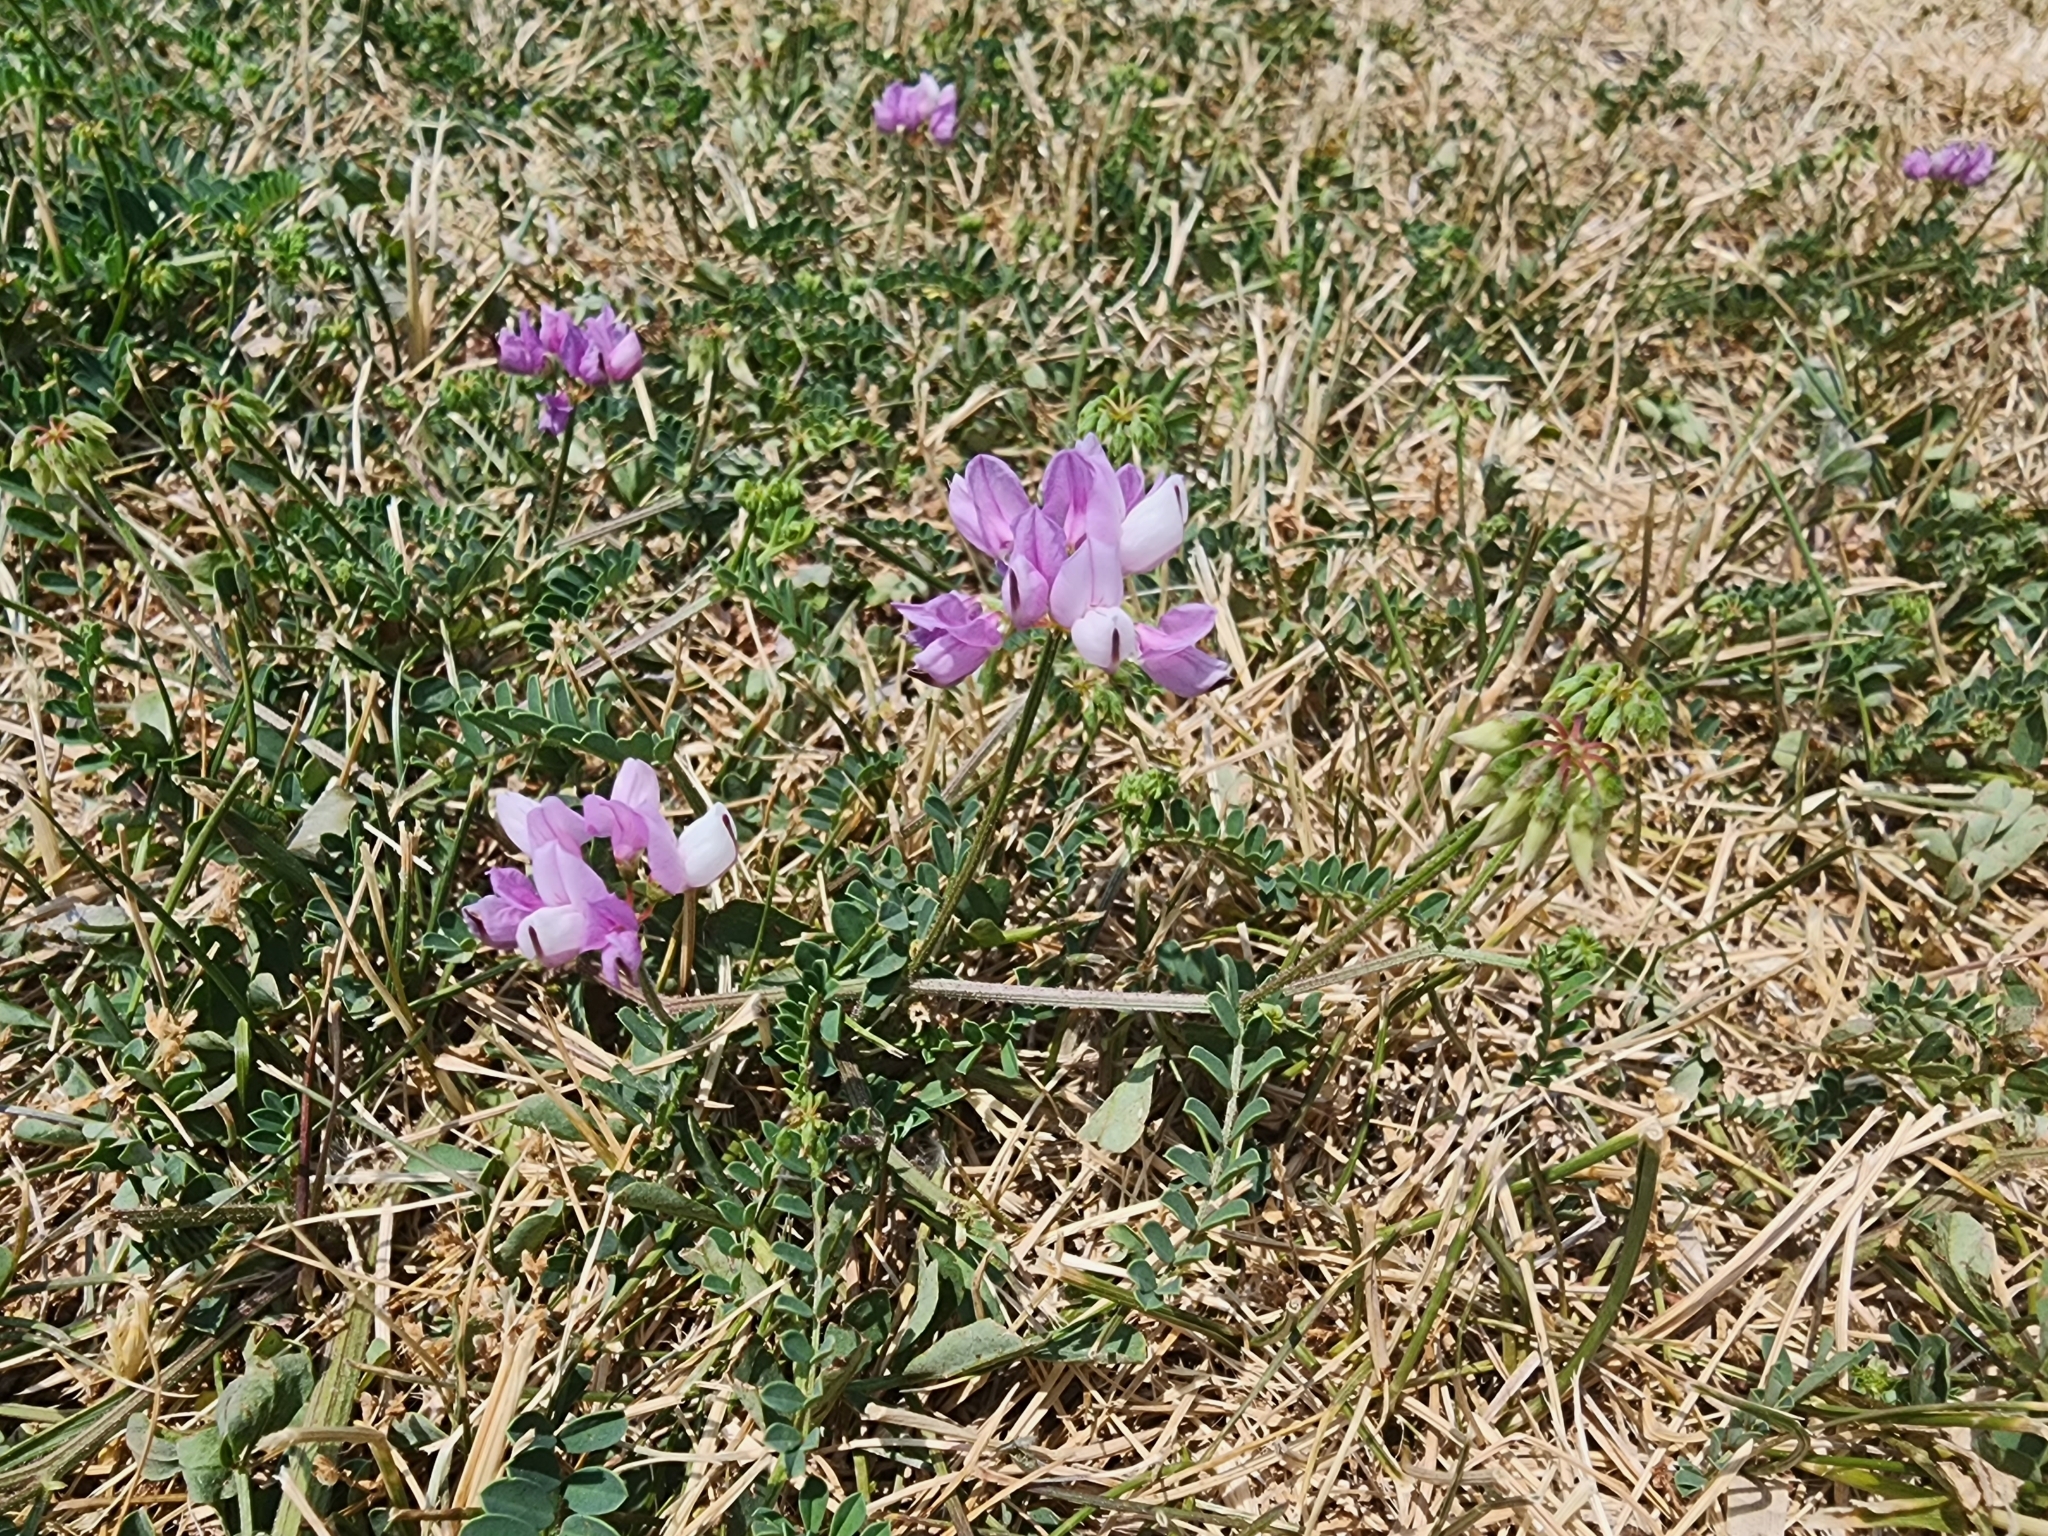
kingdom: Plantae
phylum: Tracheophyta
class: Magnoliopsida
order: Fabales
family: Fabaceae
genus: Coronilla
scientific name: Coronilla varia
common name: Crownvetch
